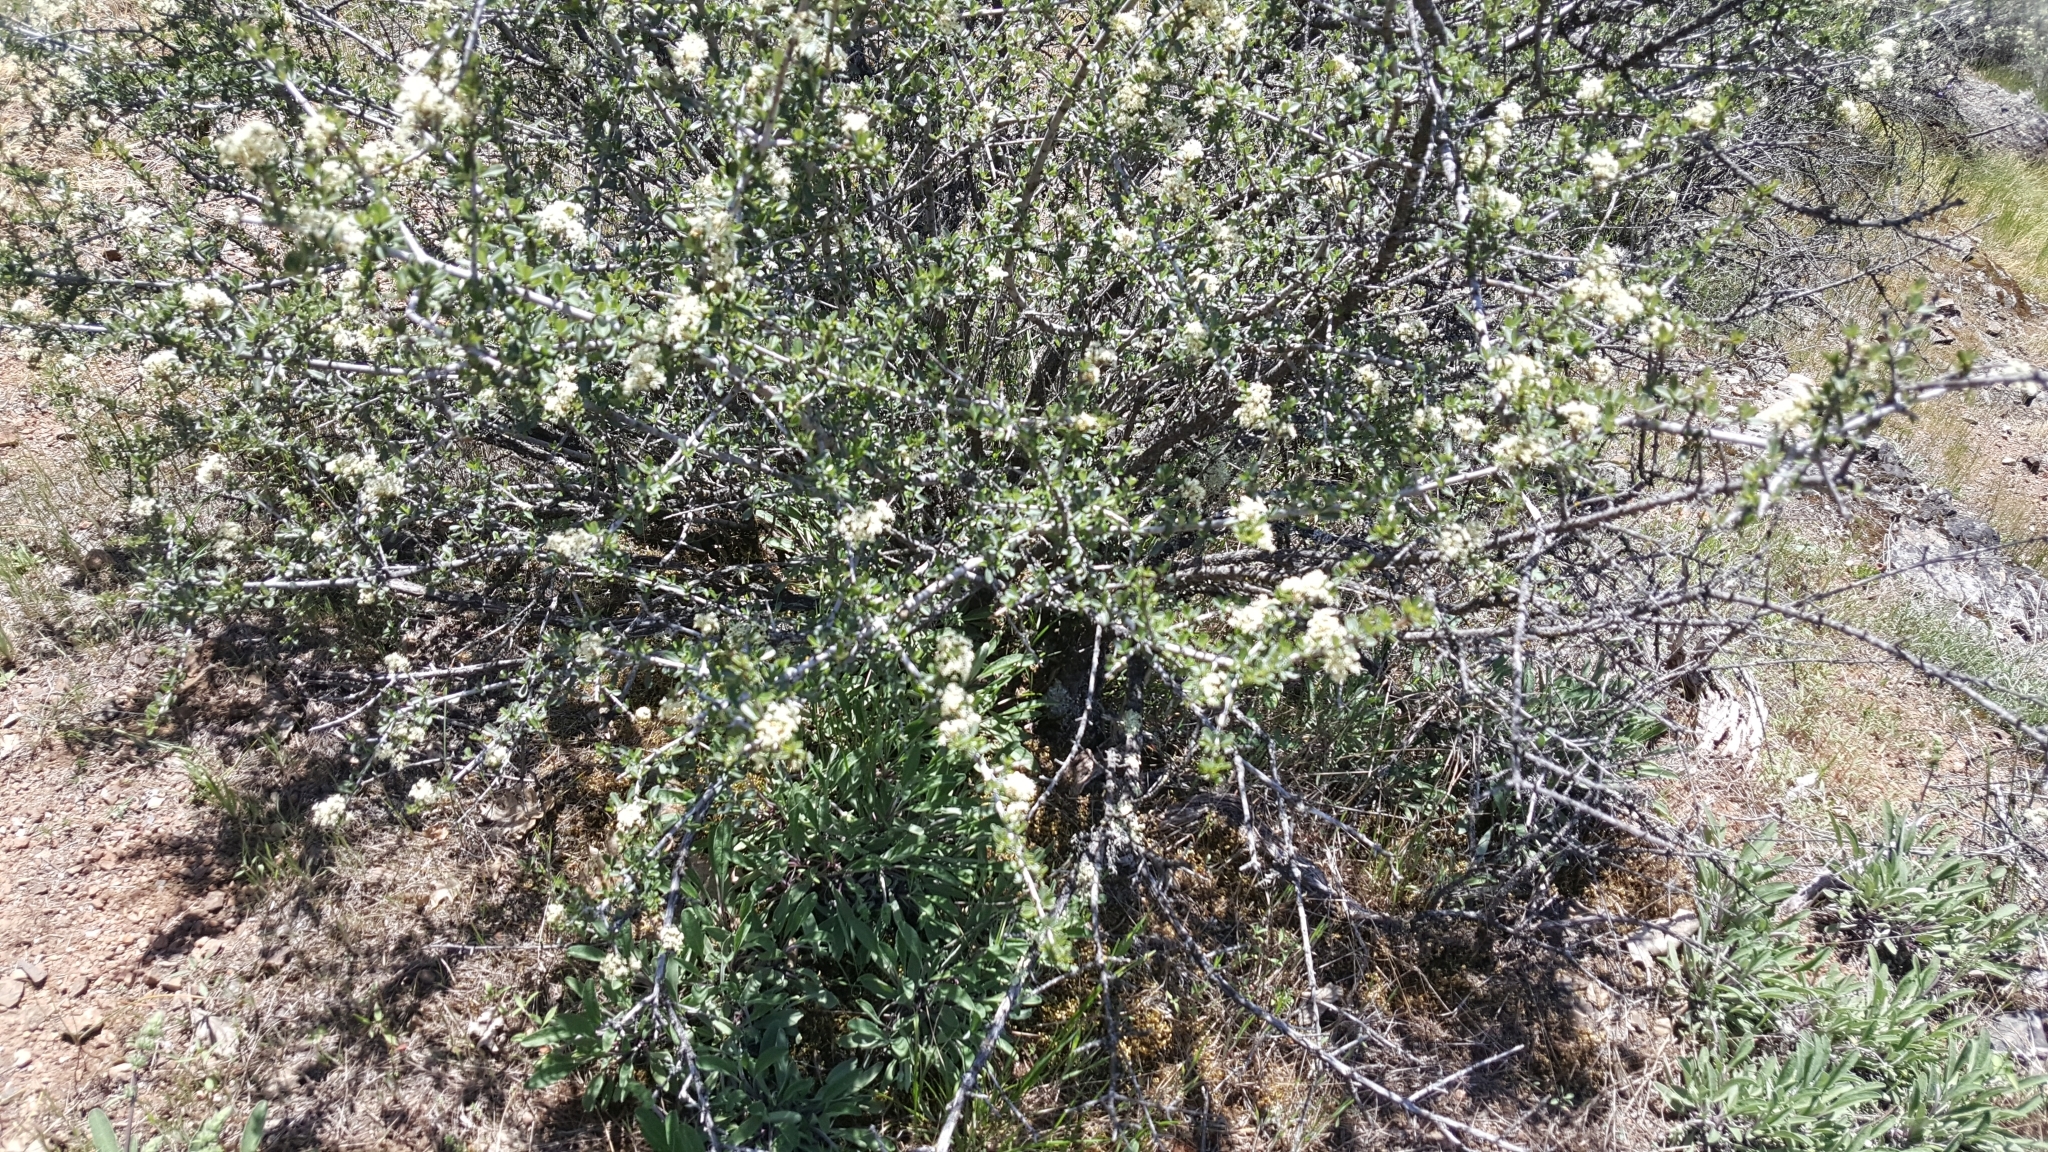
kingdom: Plantae
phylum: Tracheophyta
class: Magnoliopsida
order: Rosales
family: Rhamnaceae
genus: Ceanothus
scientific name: Ceanothus cuneatus
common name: Cuneate ceanothus
